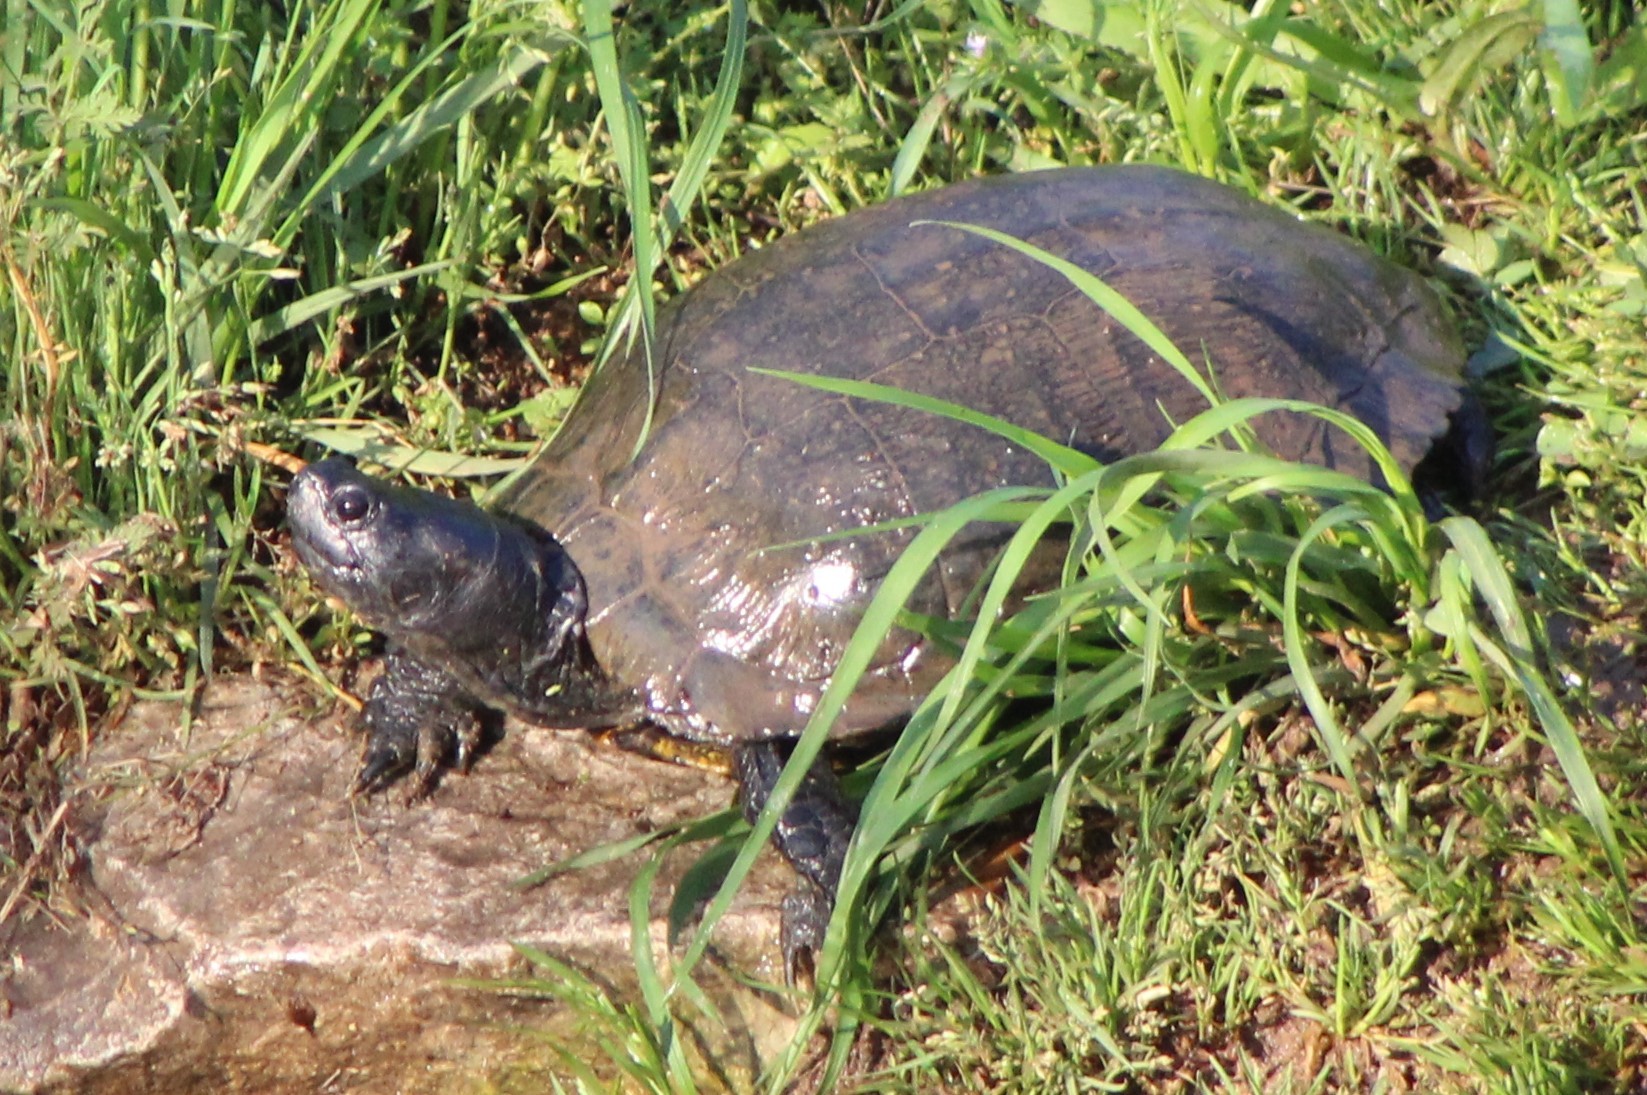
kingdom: Animalia
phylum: Chordata
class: Testudines
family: Emydidae
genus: Trachemys
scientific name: Trachemys scripta
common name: Slider
